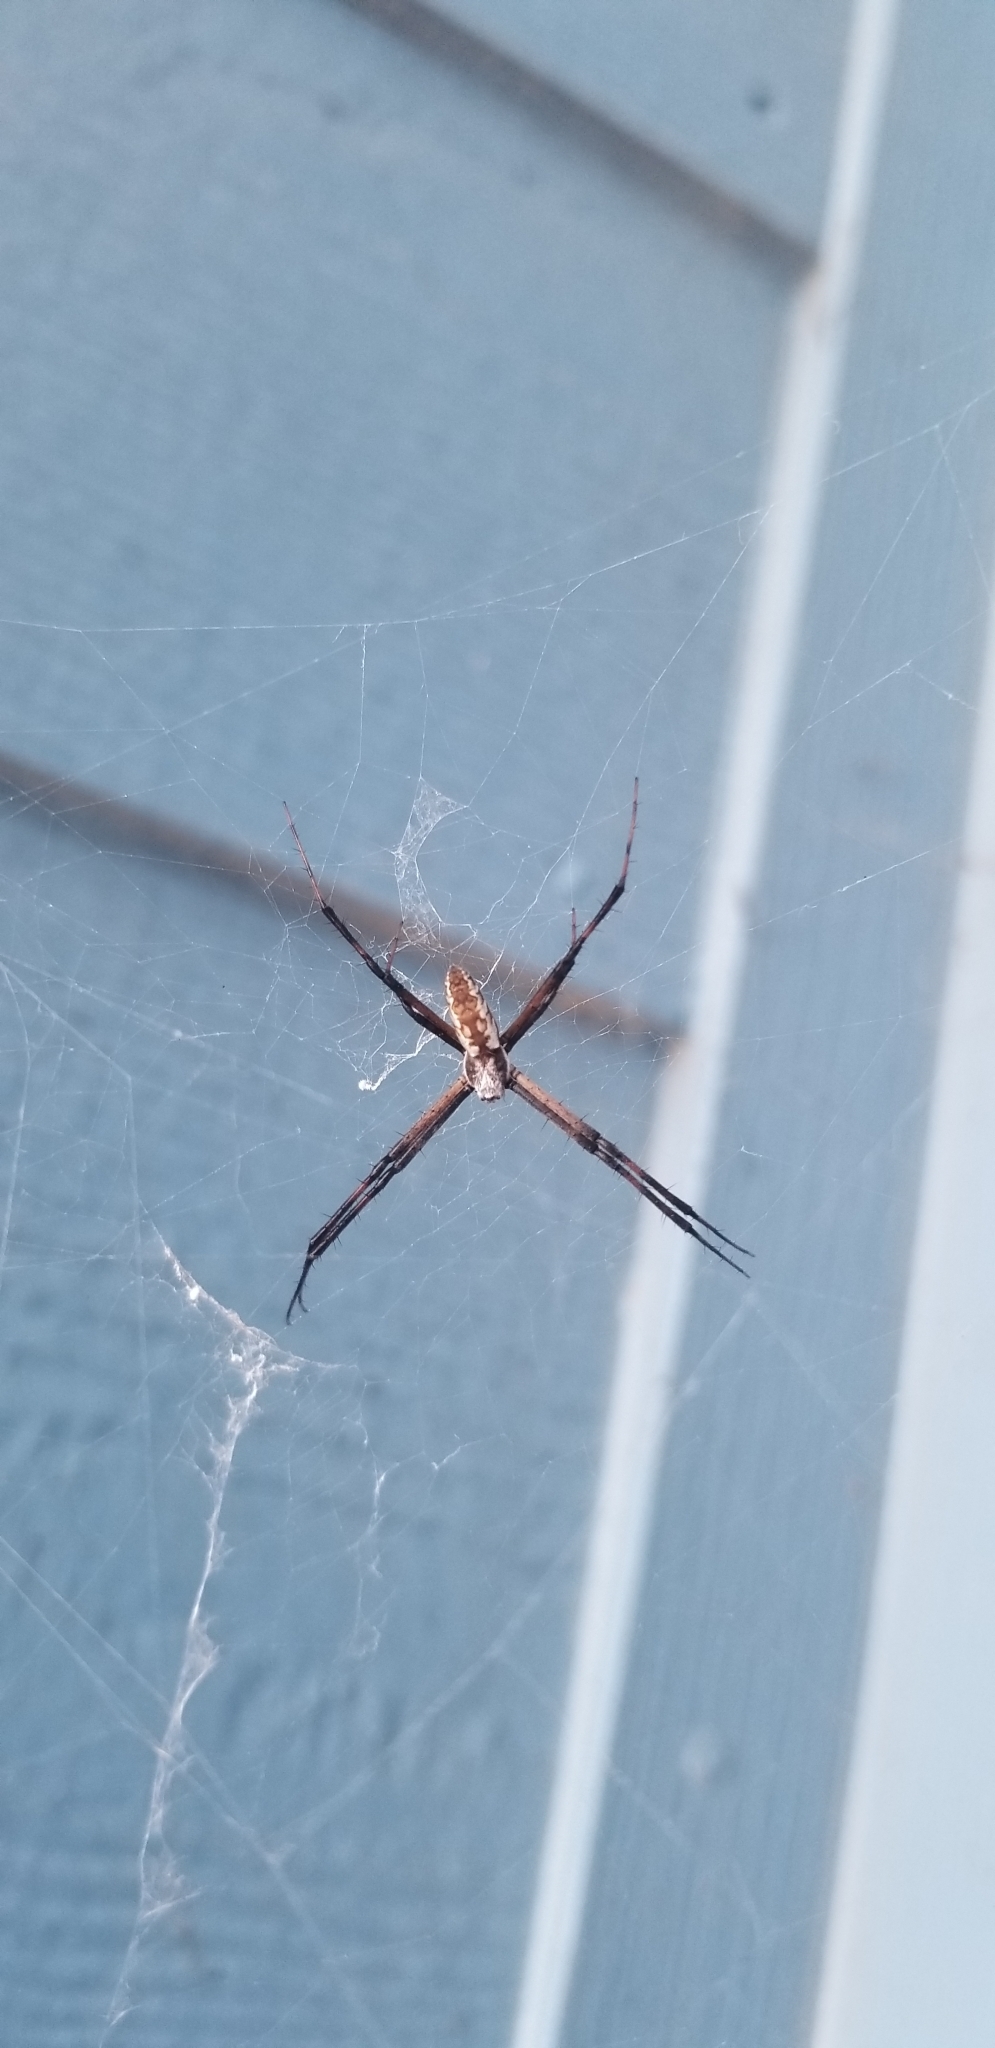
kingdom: Animalia
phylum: Arthropoda
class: Arachnida
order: Araneae
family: Araneidae
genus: Argiope
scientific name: Argiope aurantia
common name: Orb weavers
